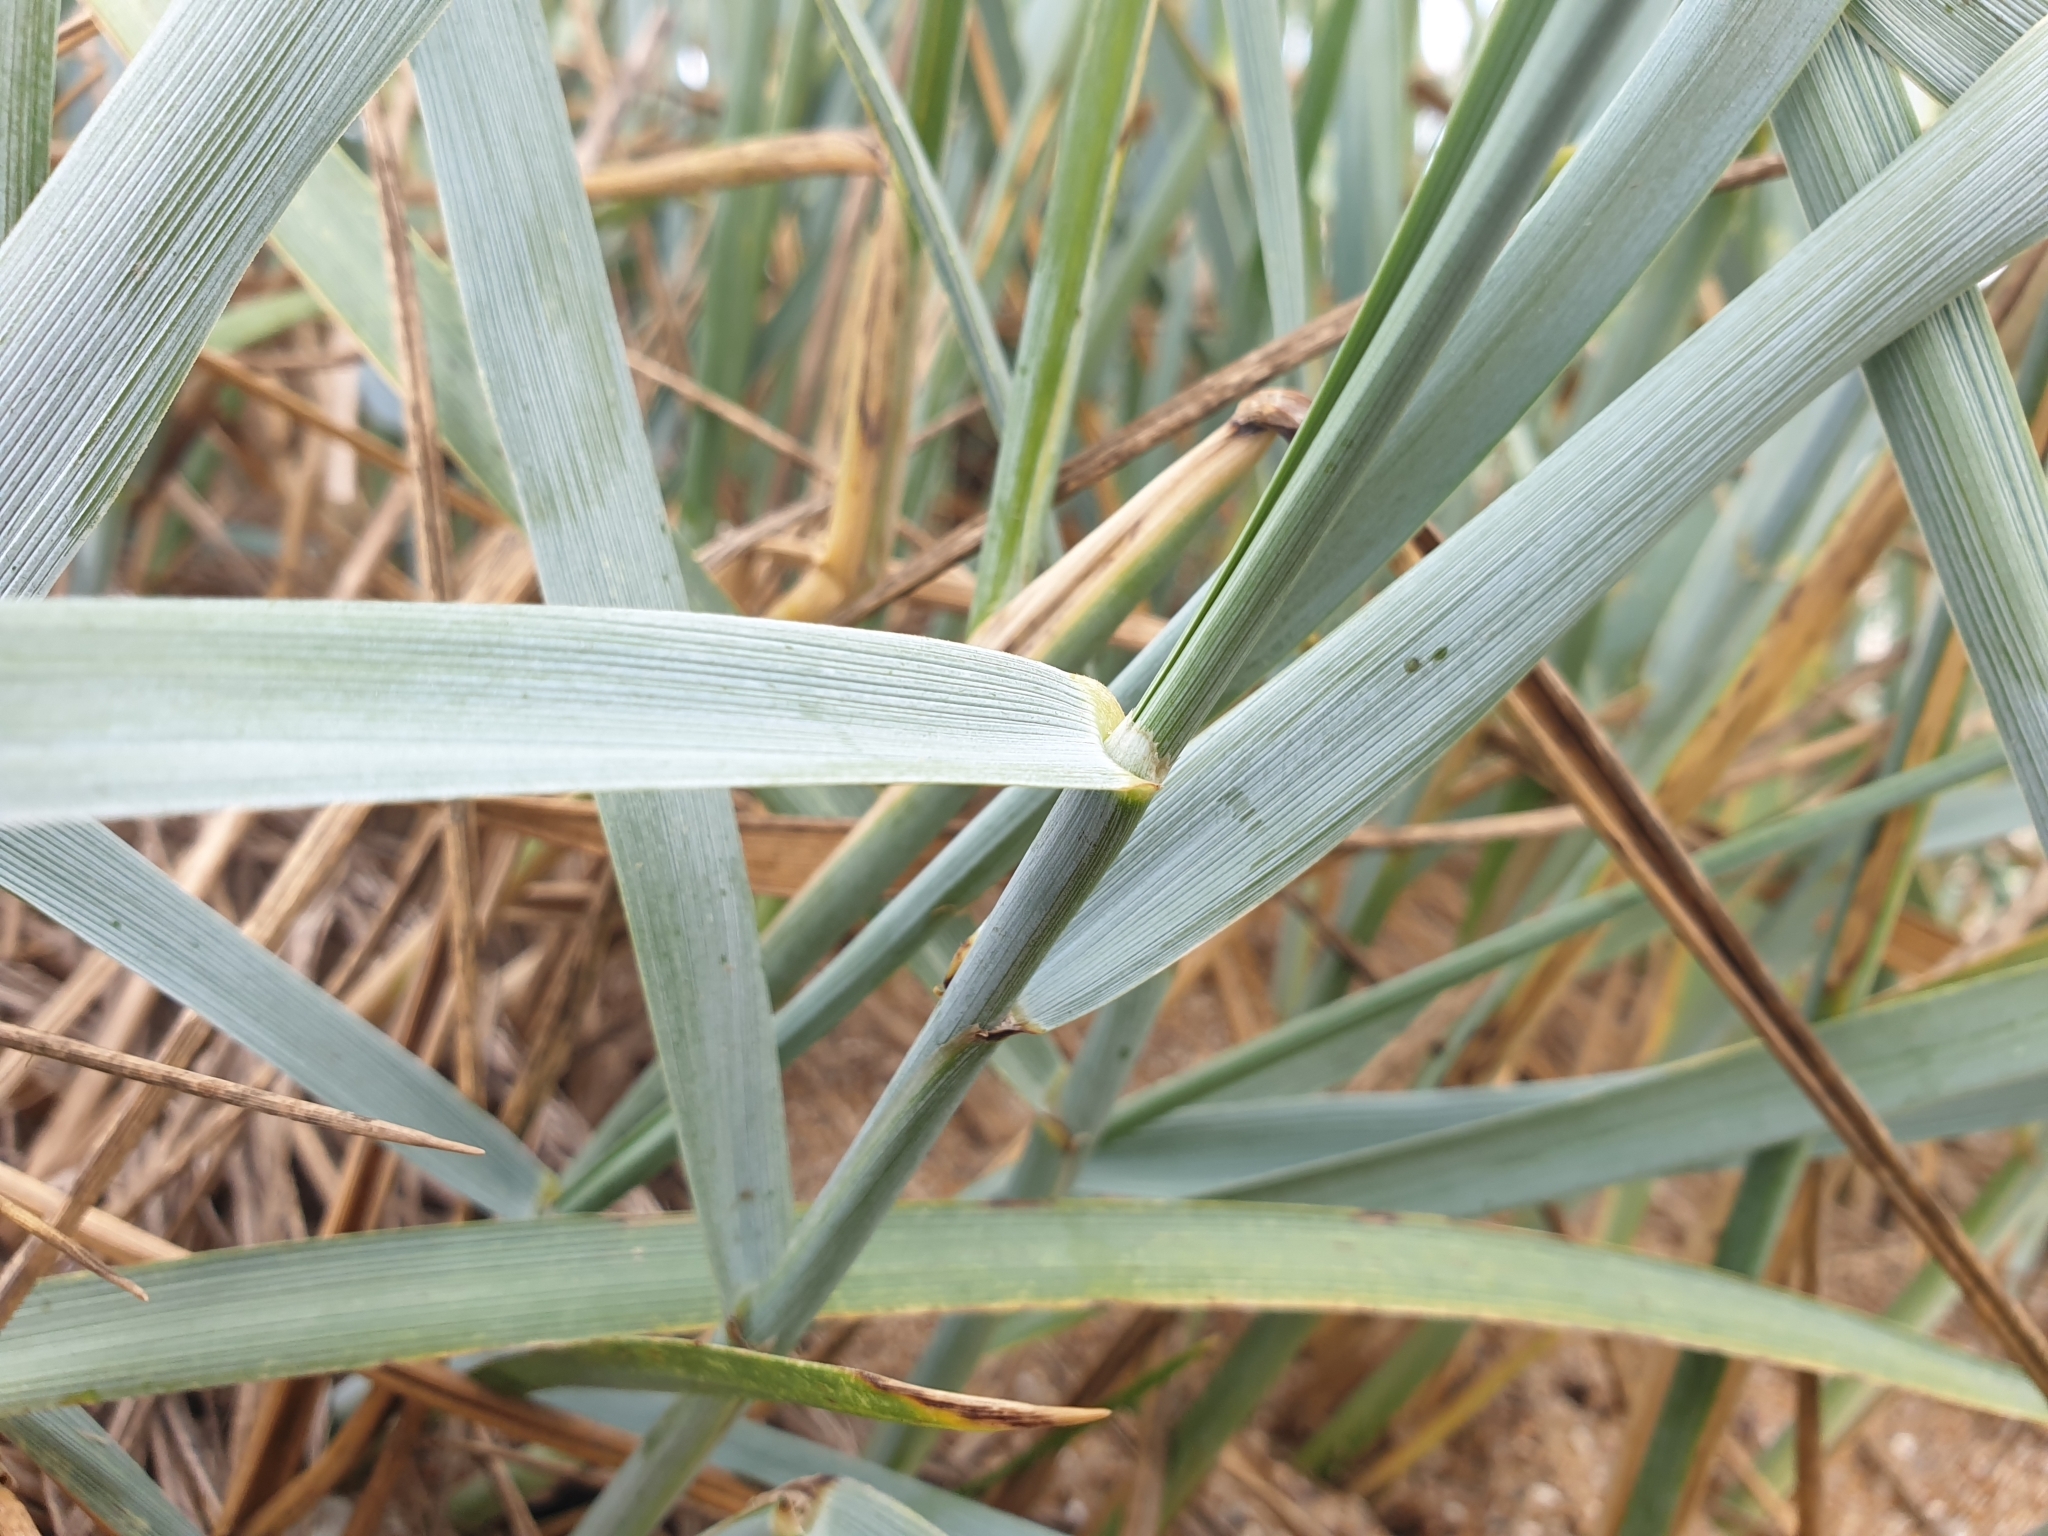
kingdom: Plantae
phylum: Tracheophyta
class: Liliopsida
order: Poales
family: Poaceae
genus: Leymus
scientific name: Leymus arenarius
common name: Lyme-grass
